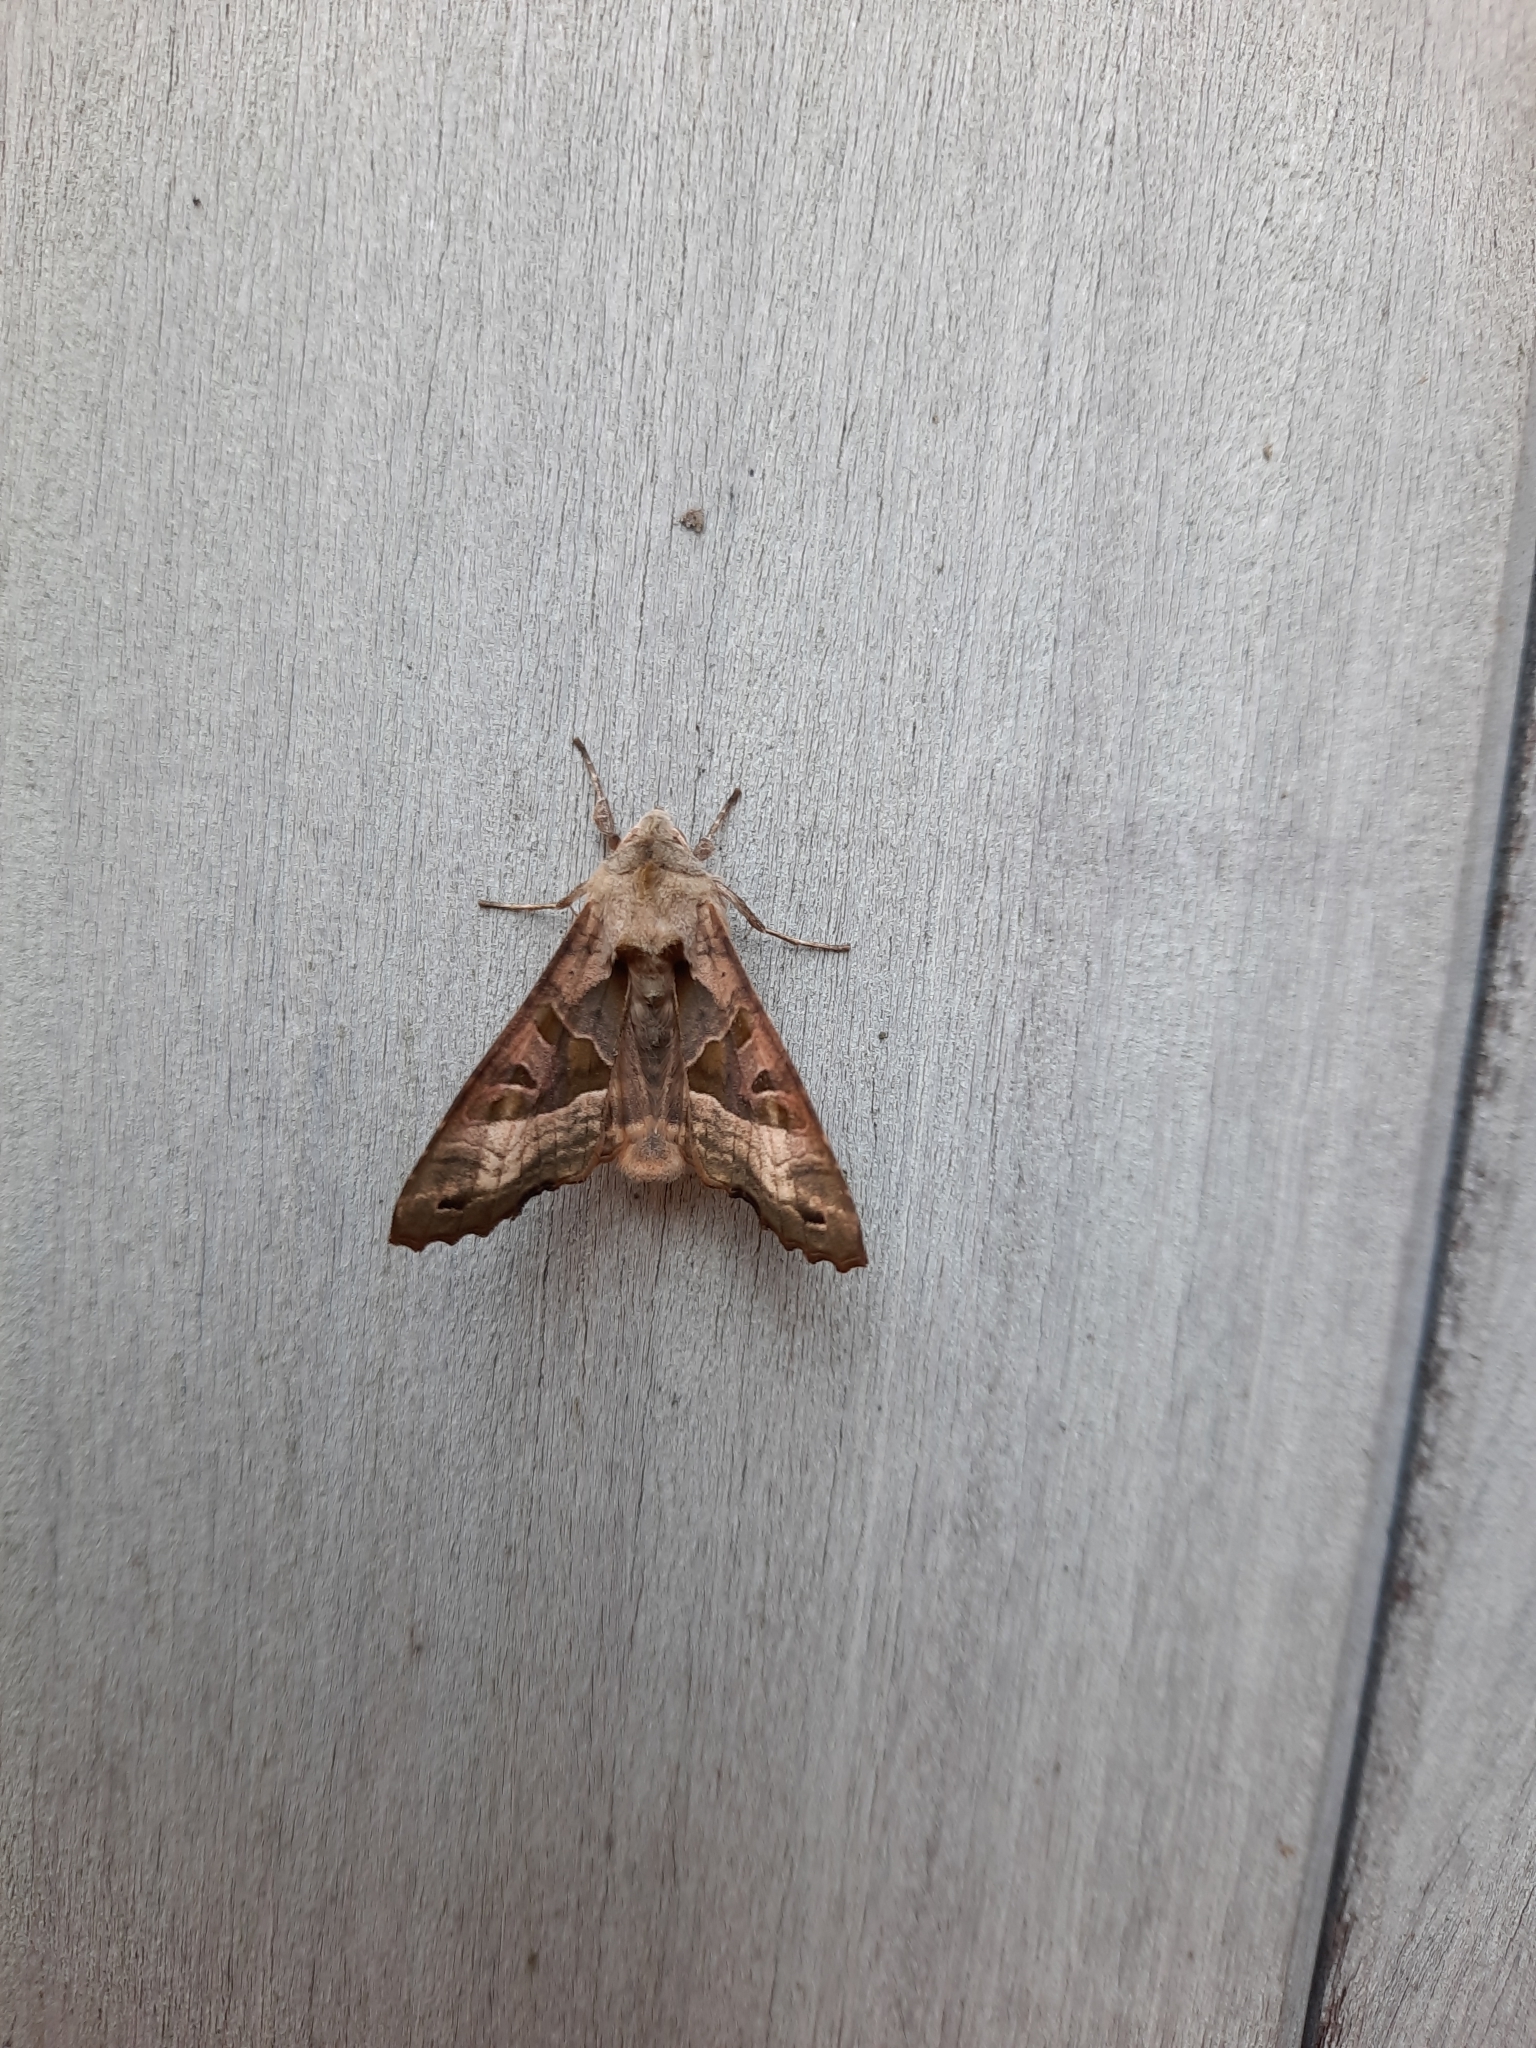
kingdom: Animalia
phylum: Arthropoda
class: Insecta
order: Lepidoptera
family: Noctuidae
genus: Phlogophora
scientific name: Phlogophora meticulosa
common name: Angle shades
